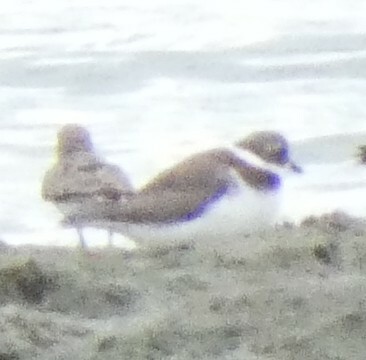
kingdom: Animalia
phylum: Chordata
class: Aves
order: Charadriiformes
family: Charadriidae
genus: Charadrius
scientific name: Charadrius semipalmatus
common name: Semipalmated plover
